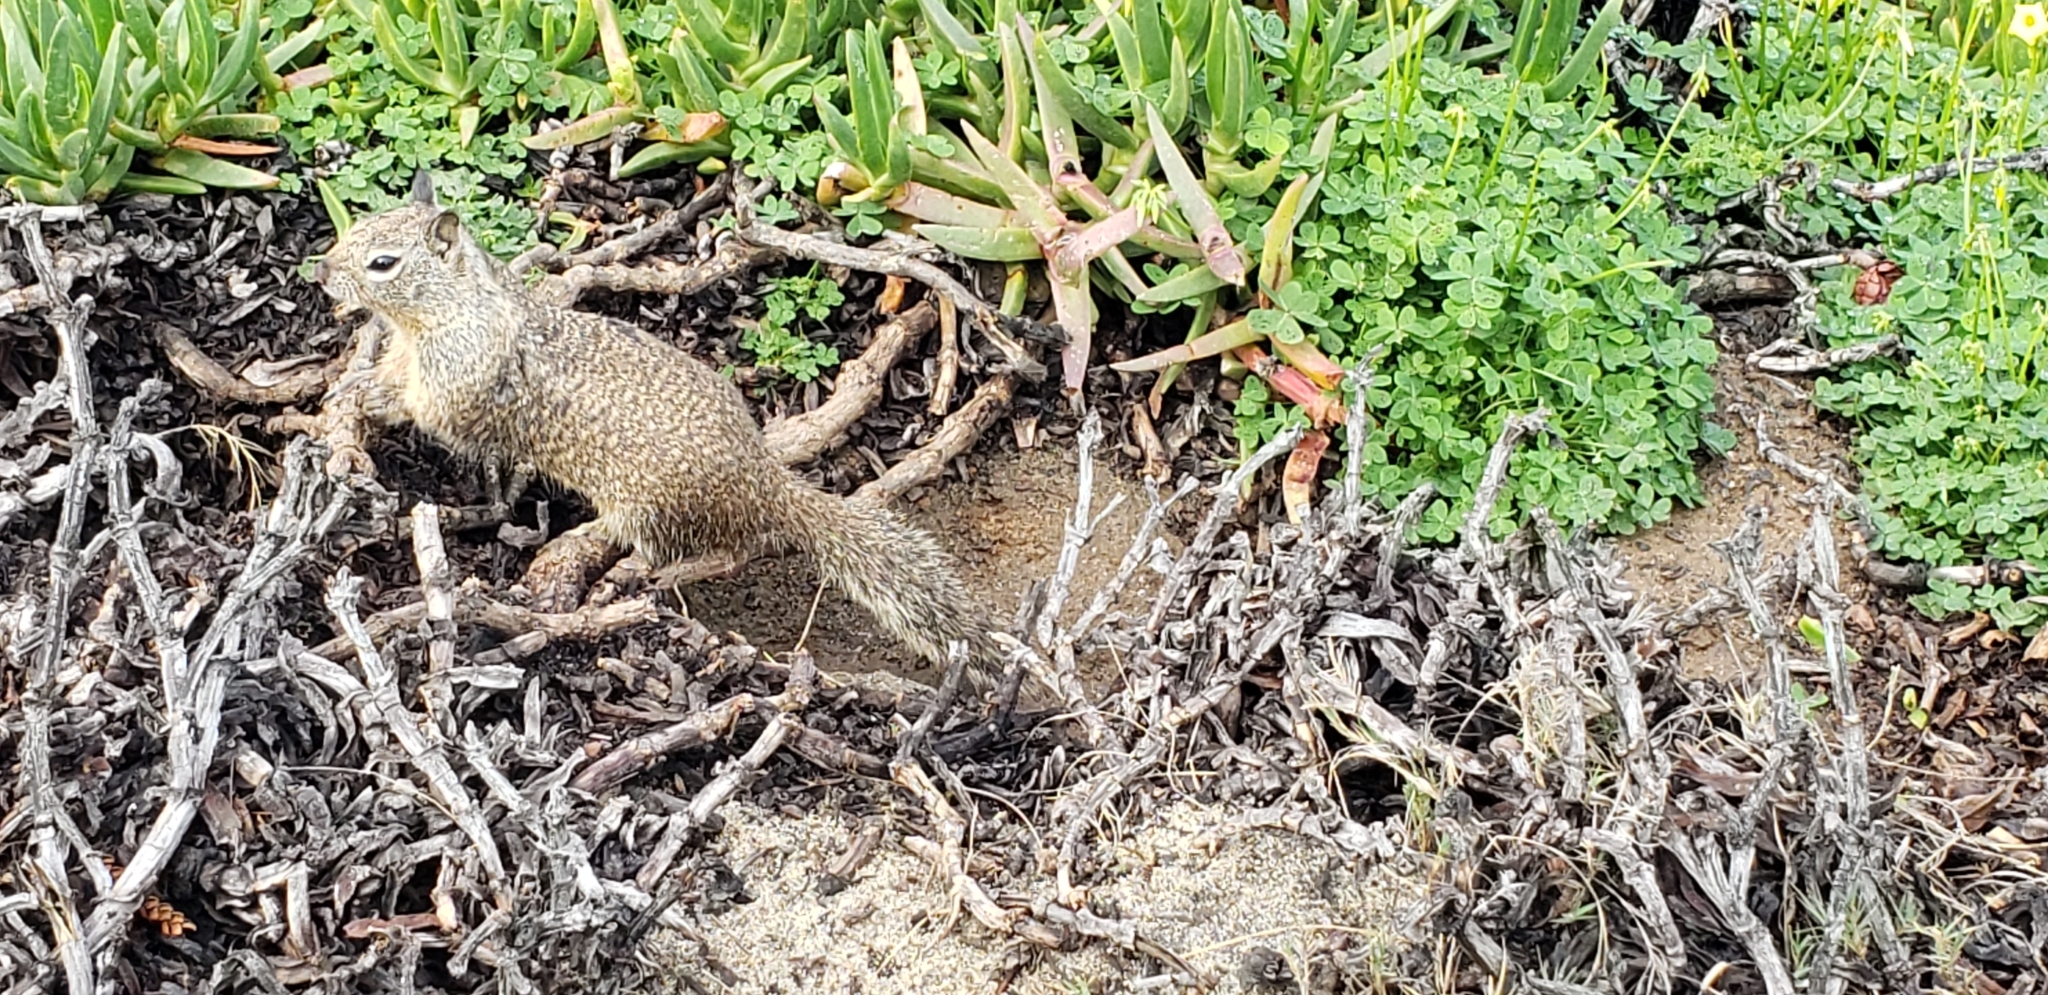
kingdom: Animalia
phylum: Chordata
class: Mammalia
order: Rodentia
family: Sciuridae
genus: Otospermophilus
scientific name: Otospermophilus beecheyi
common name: California ground squirrel
